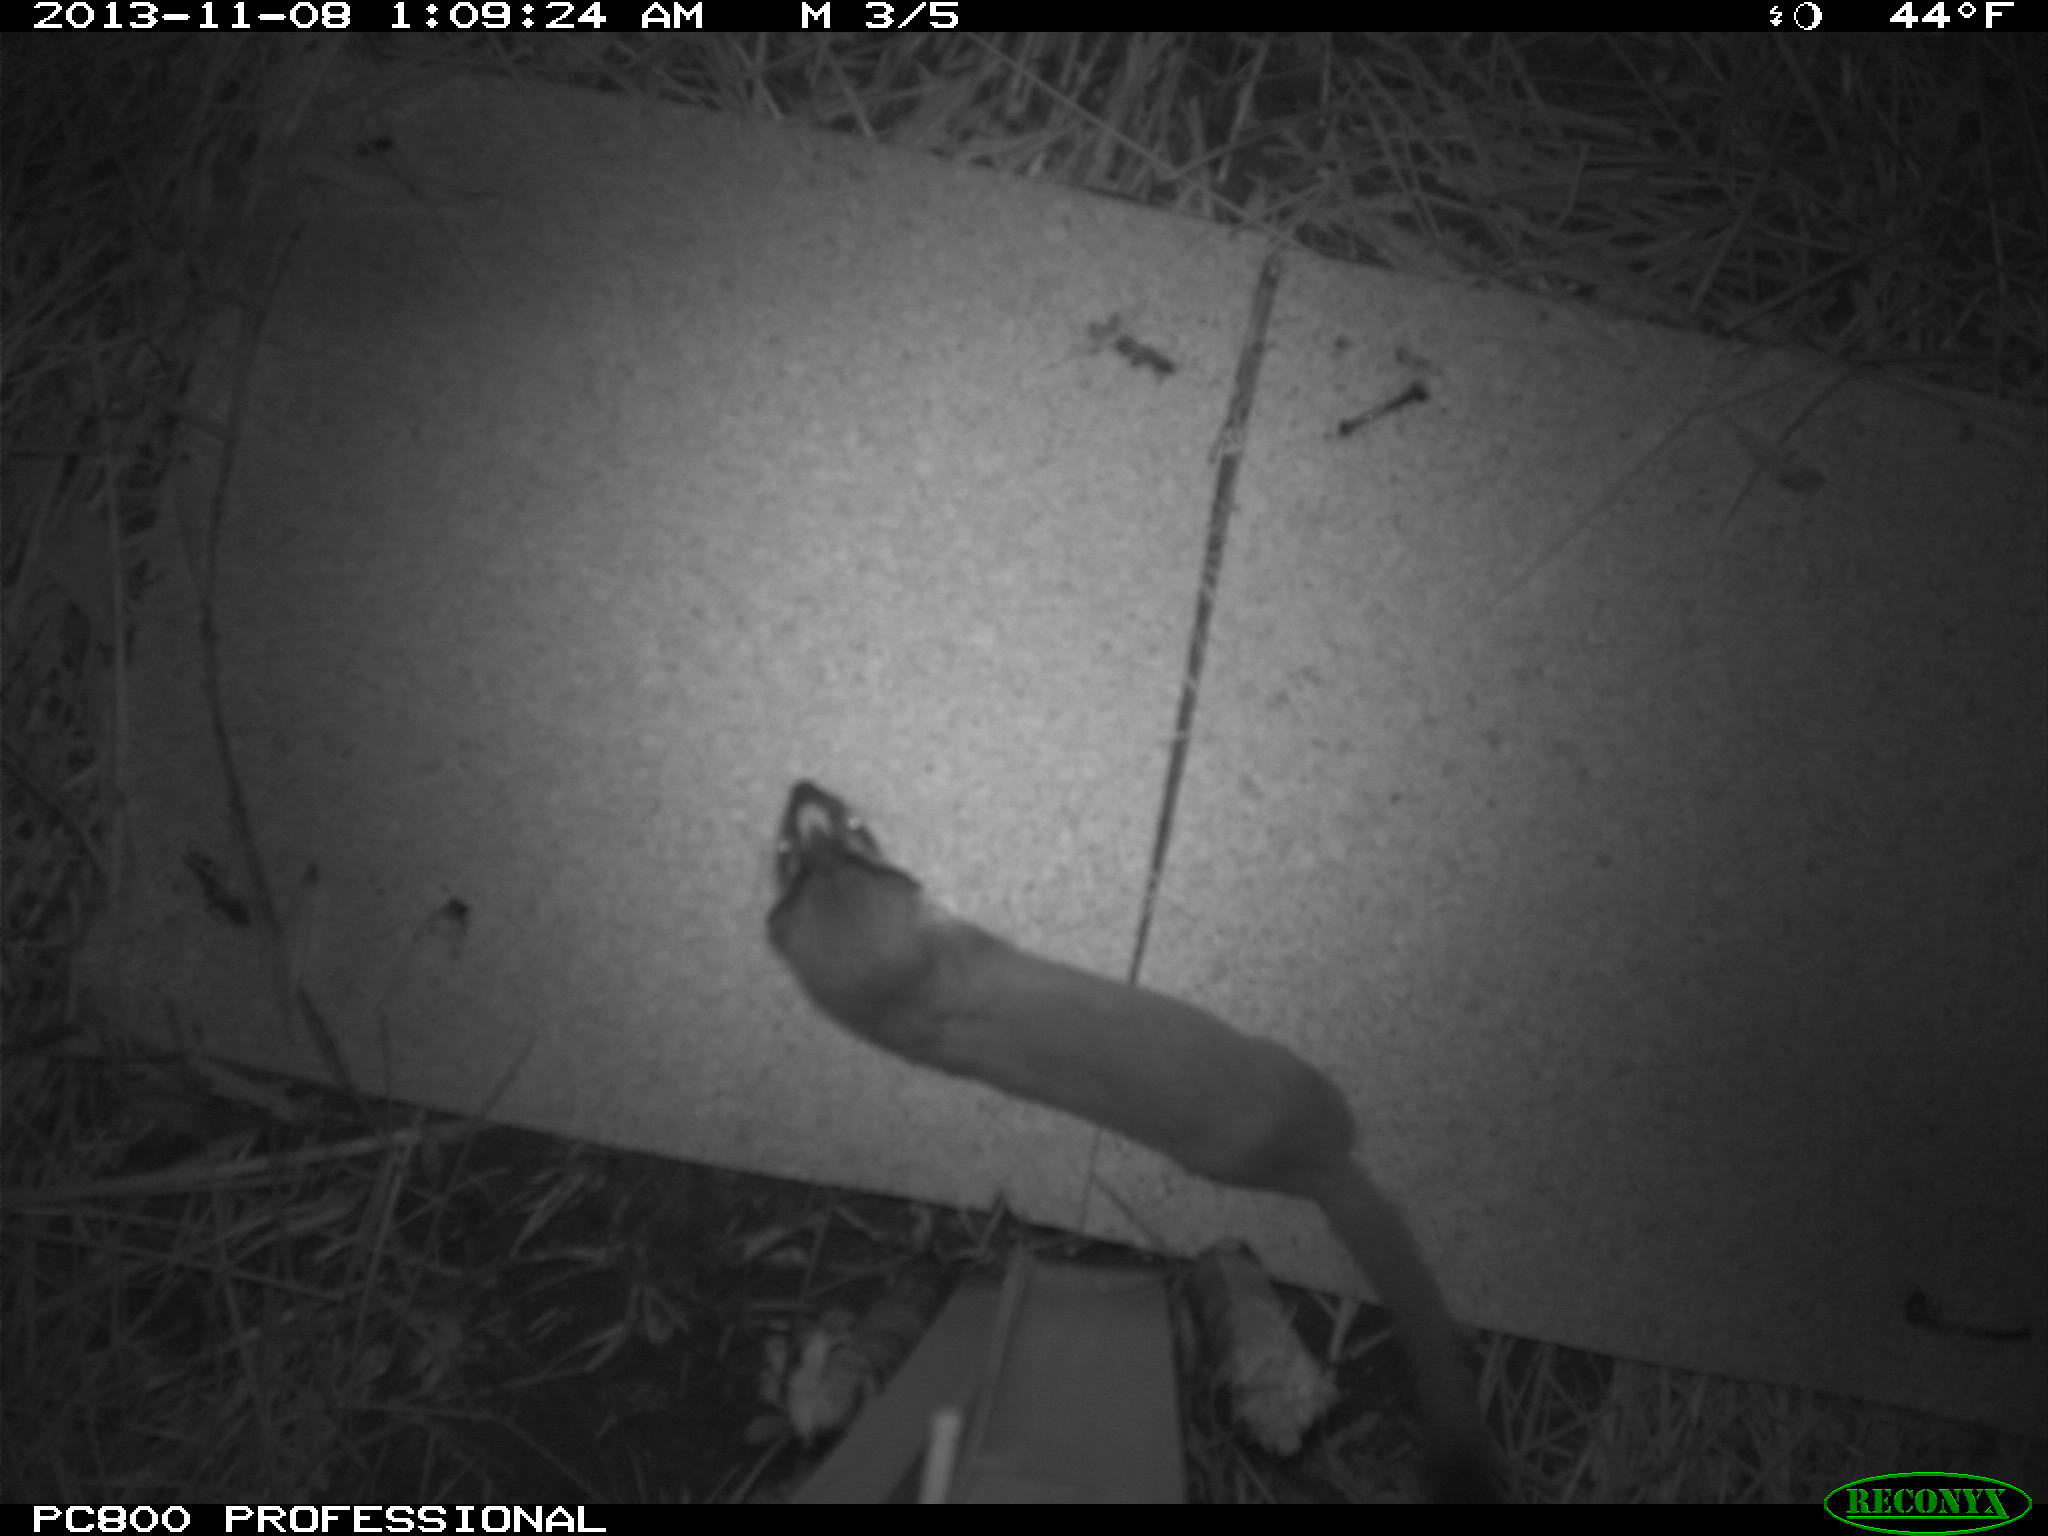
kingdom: Animalia
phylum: Chordata
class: Mammalia
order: Carnivora
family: Mustelidae
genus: Mustela
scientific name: Mustela
